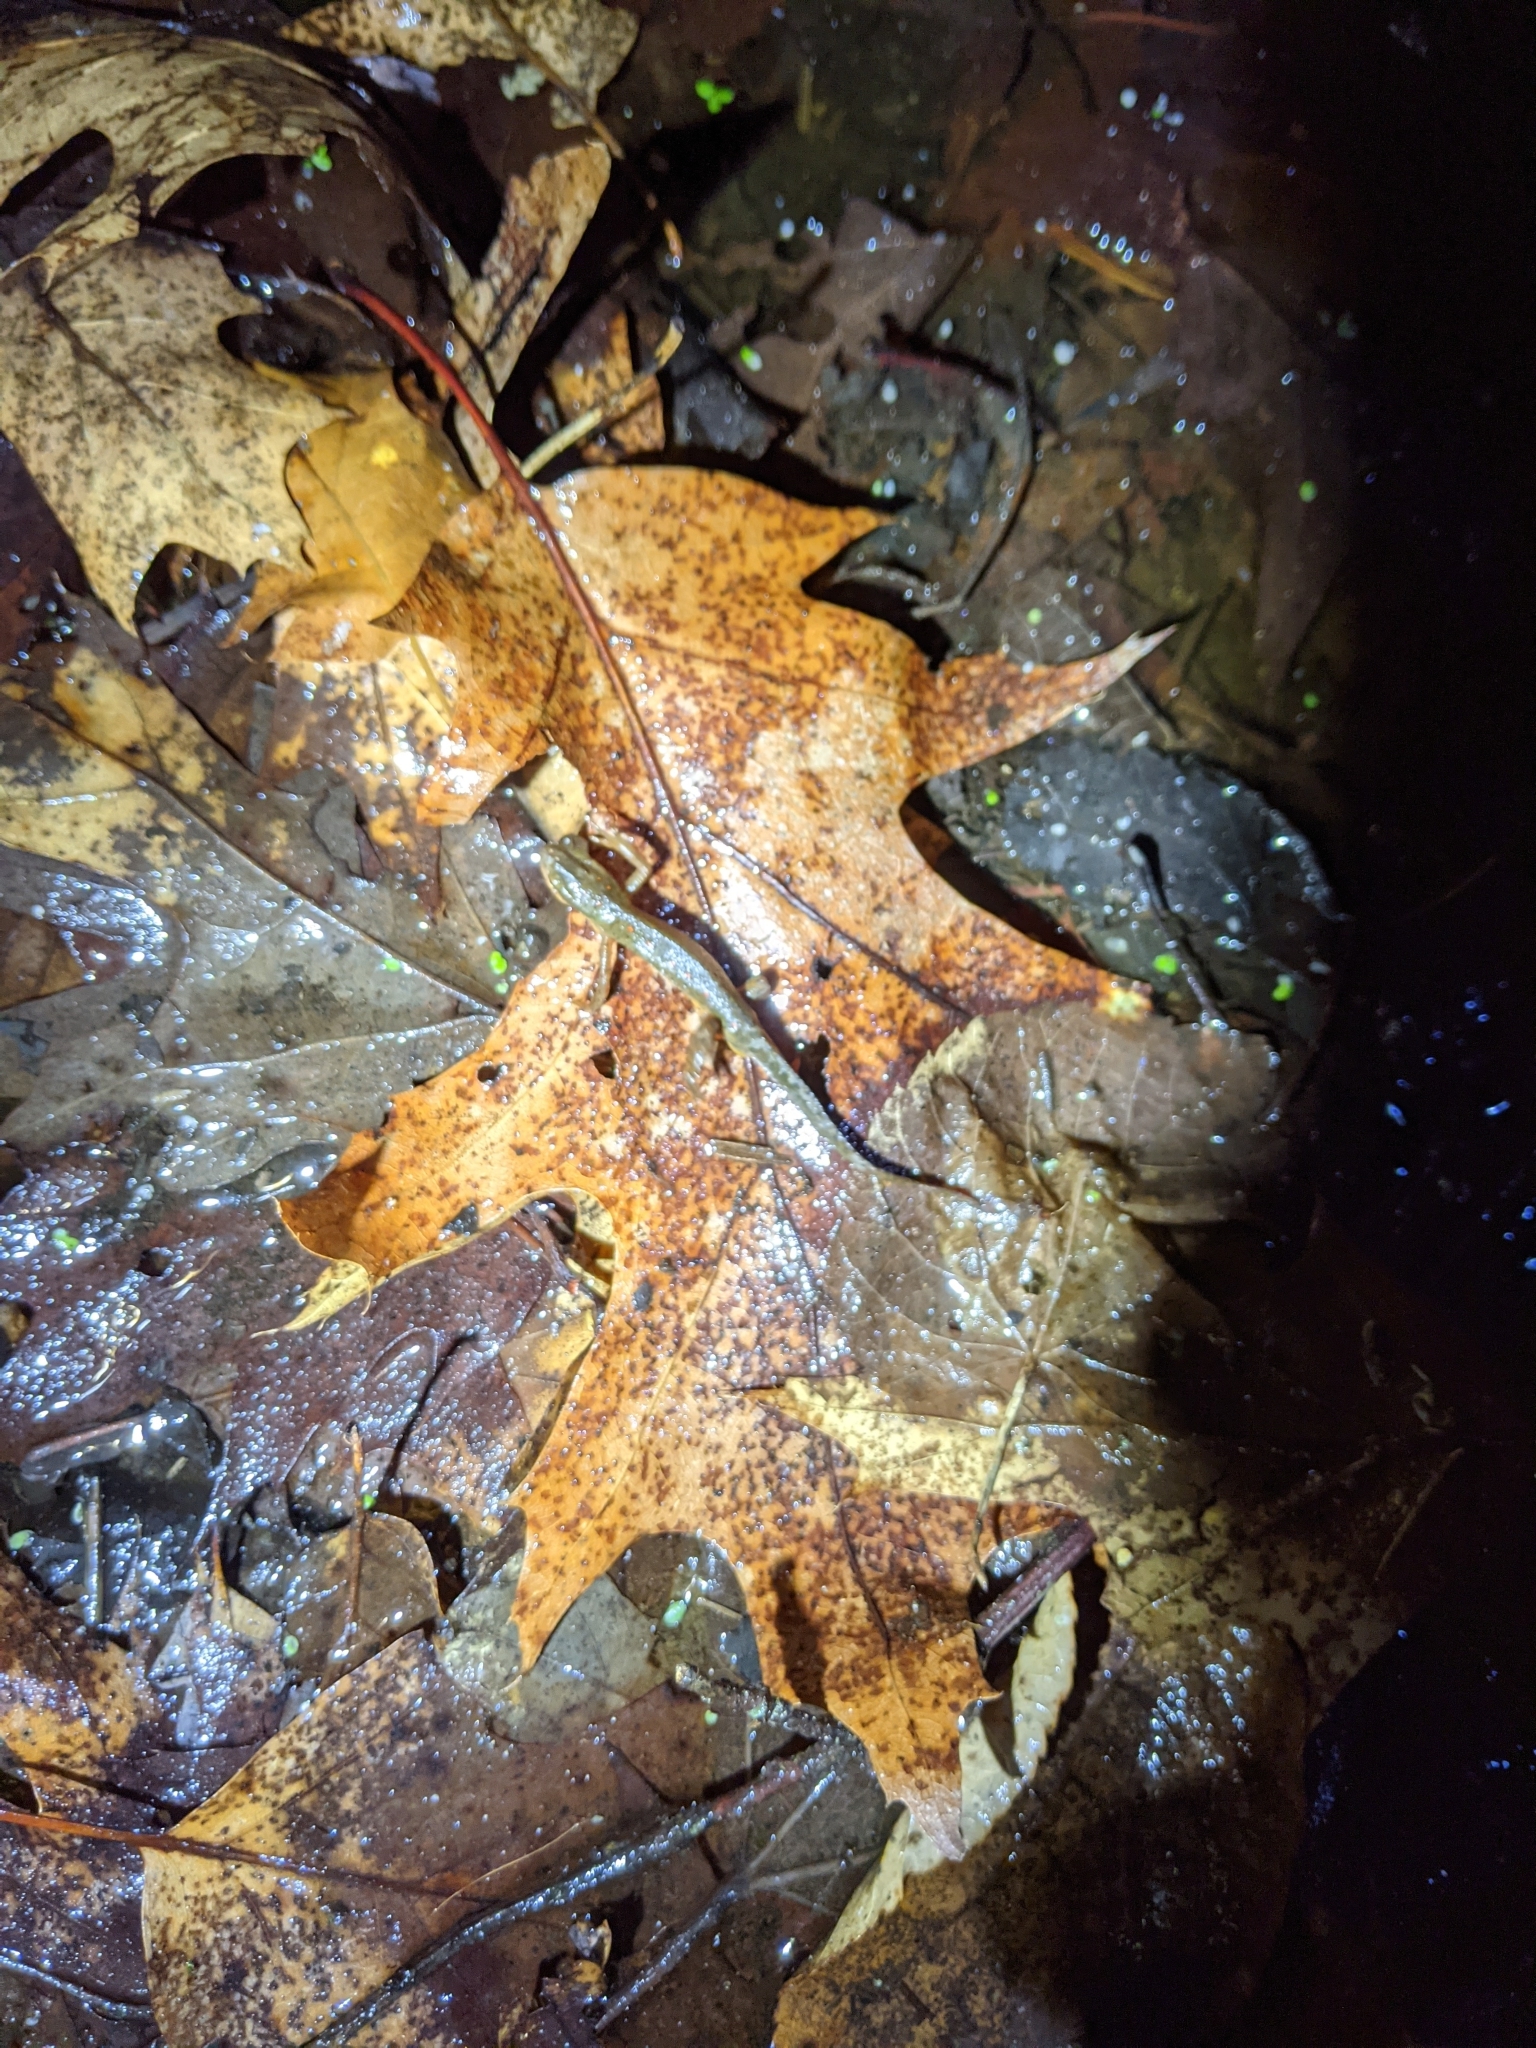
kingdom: Animalia
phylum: Chordata
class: Amphibia
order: Caudata
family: Salamandridae
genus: Notophthalmus
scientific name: Notophthalmus viridescens
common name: Eastern newt
